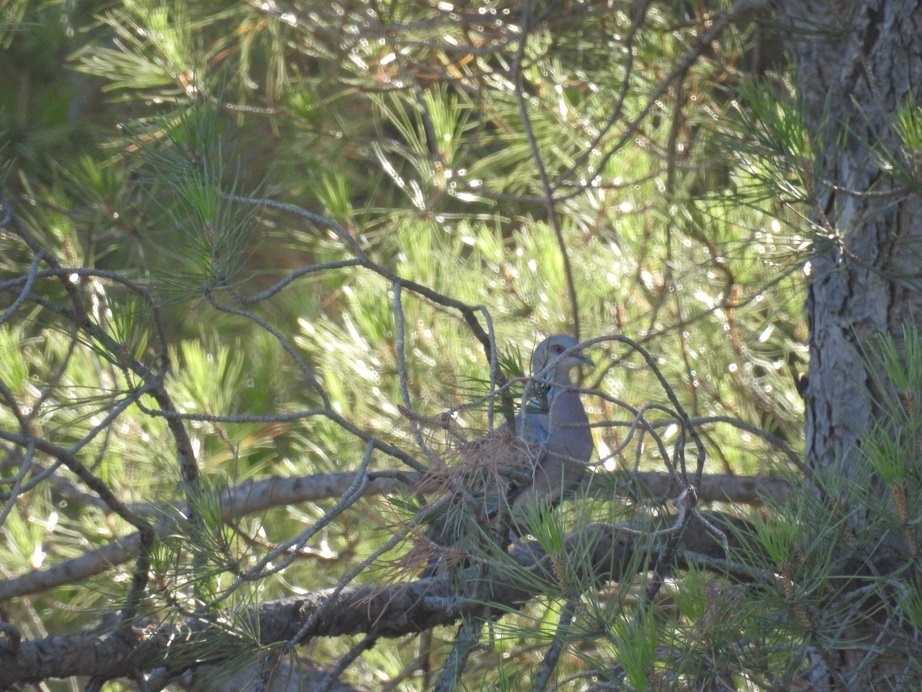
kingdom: Animalia
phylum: Chordata
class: Aves
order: Columbiformes
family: Columbidae
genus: Streptopelia
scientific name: Streptopelia turtur
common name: European turtle dove
